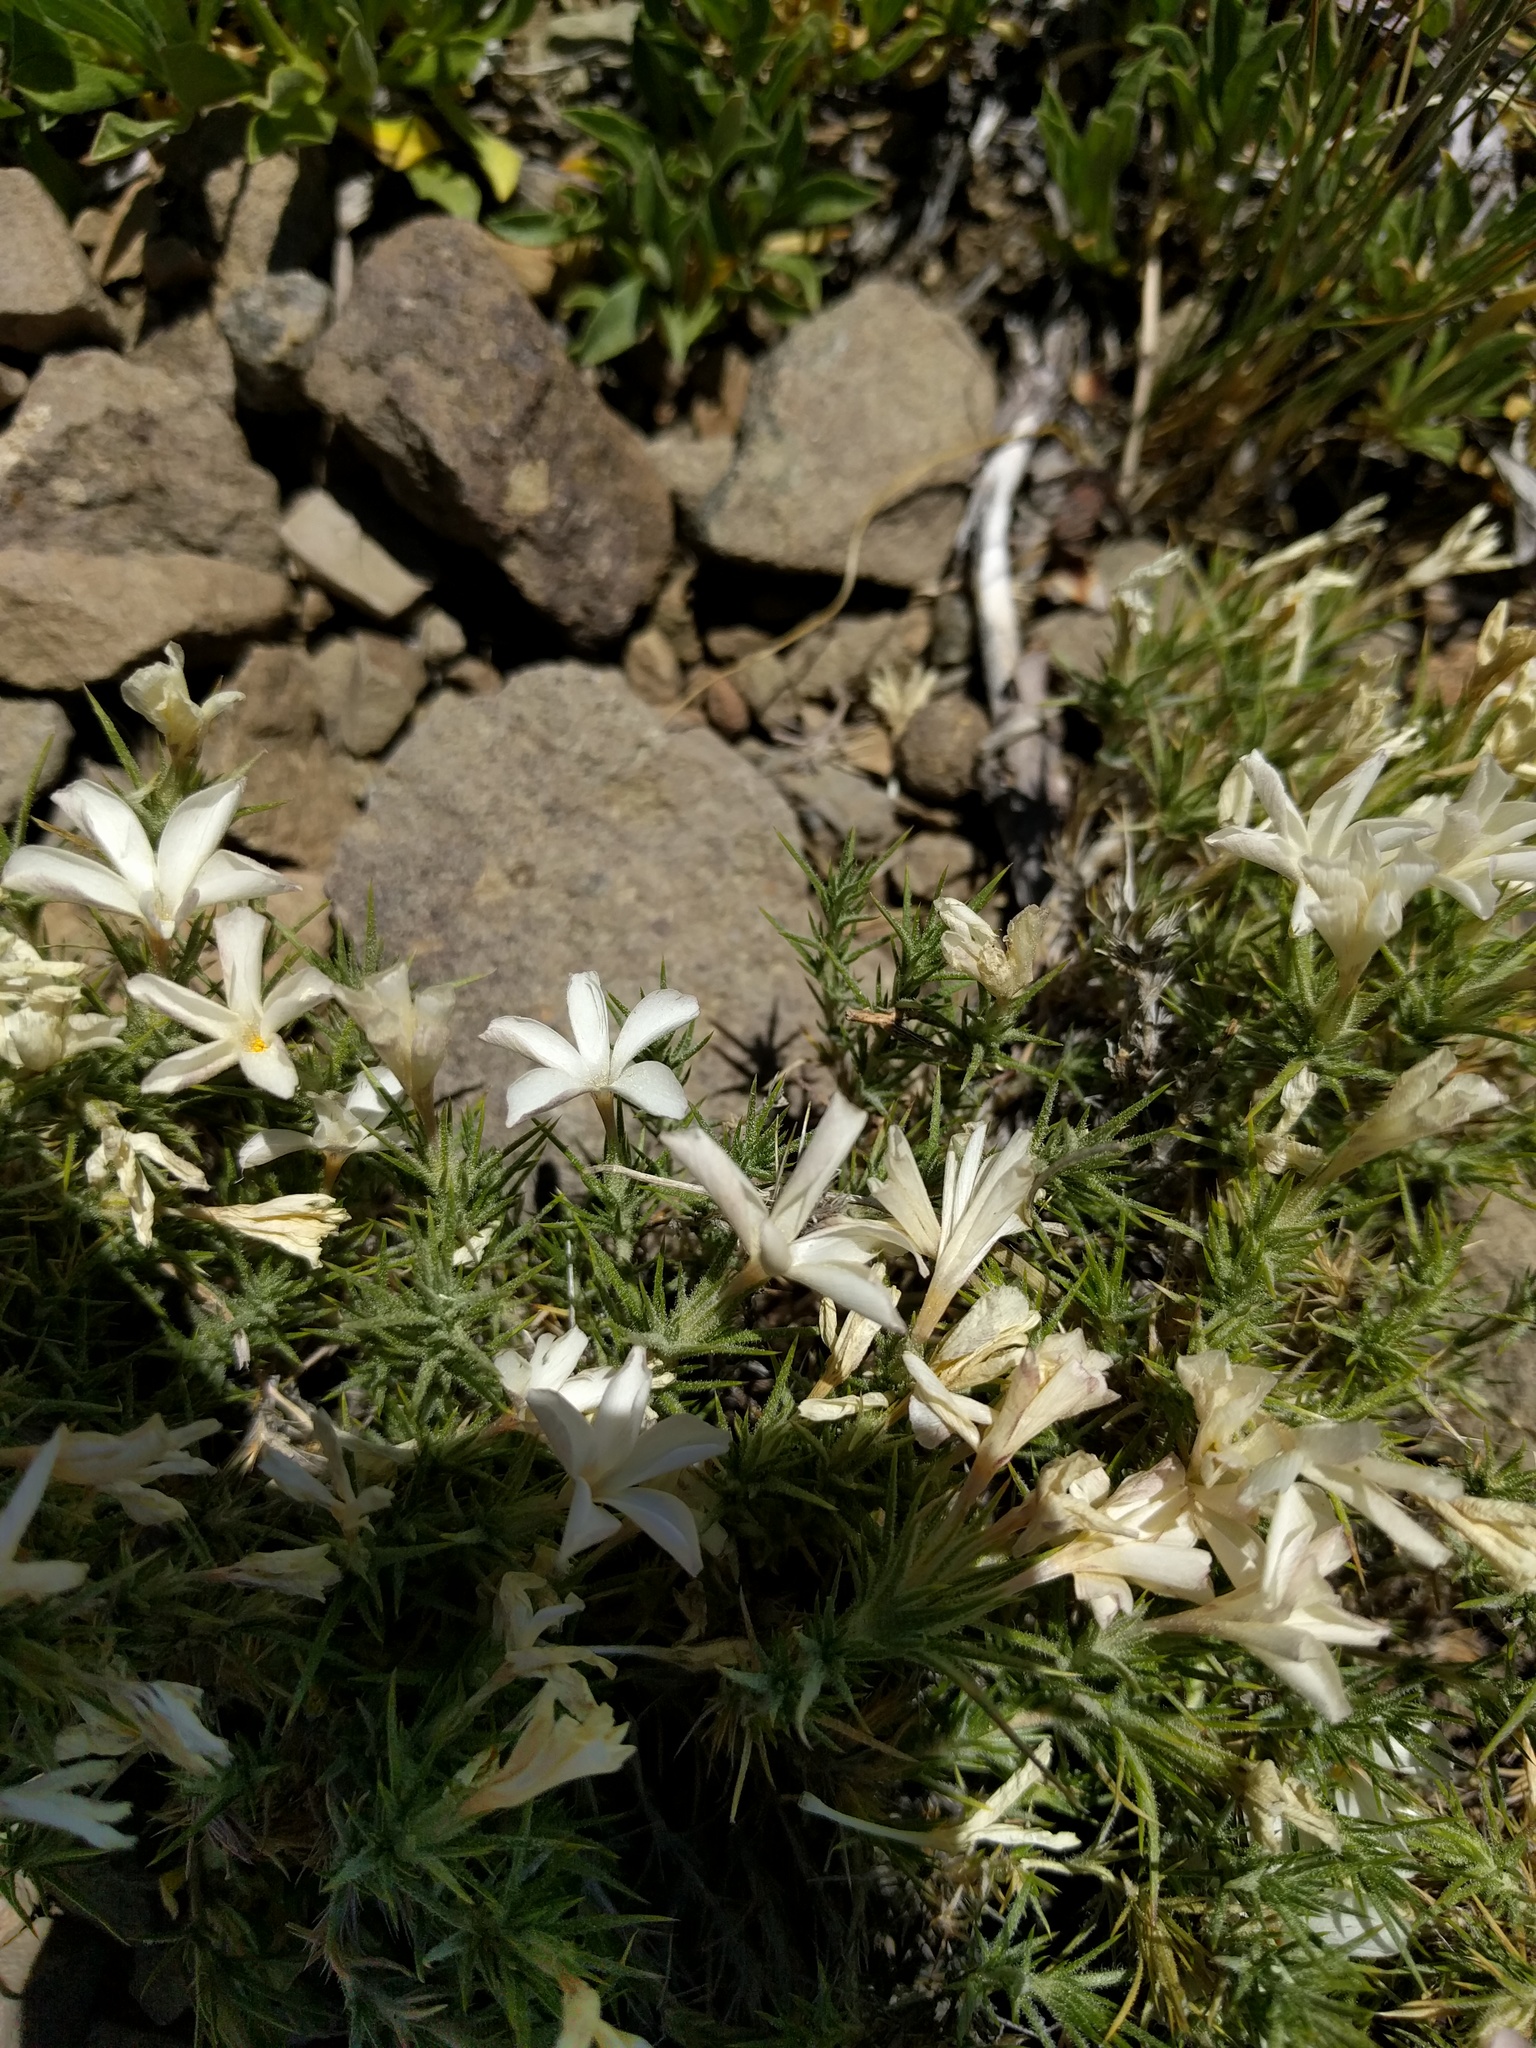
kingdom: Plantae
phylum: Tracheophyta
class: Magnoliopsida
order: Ericales
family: Polemoniaceae
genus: Linanthus
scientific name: Linanthus pungens
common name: Granite prickly phlox
